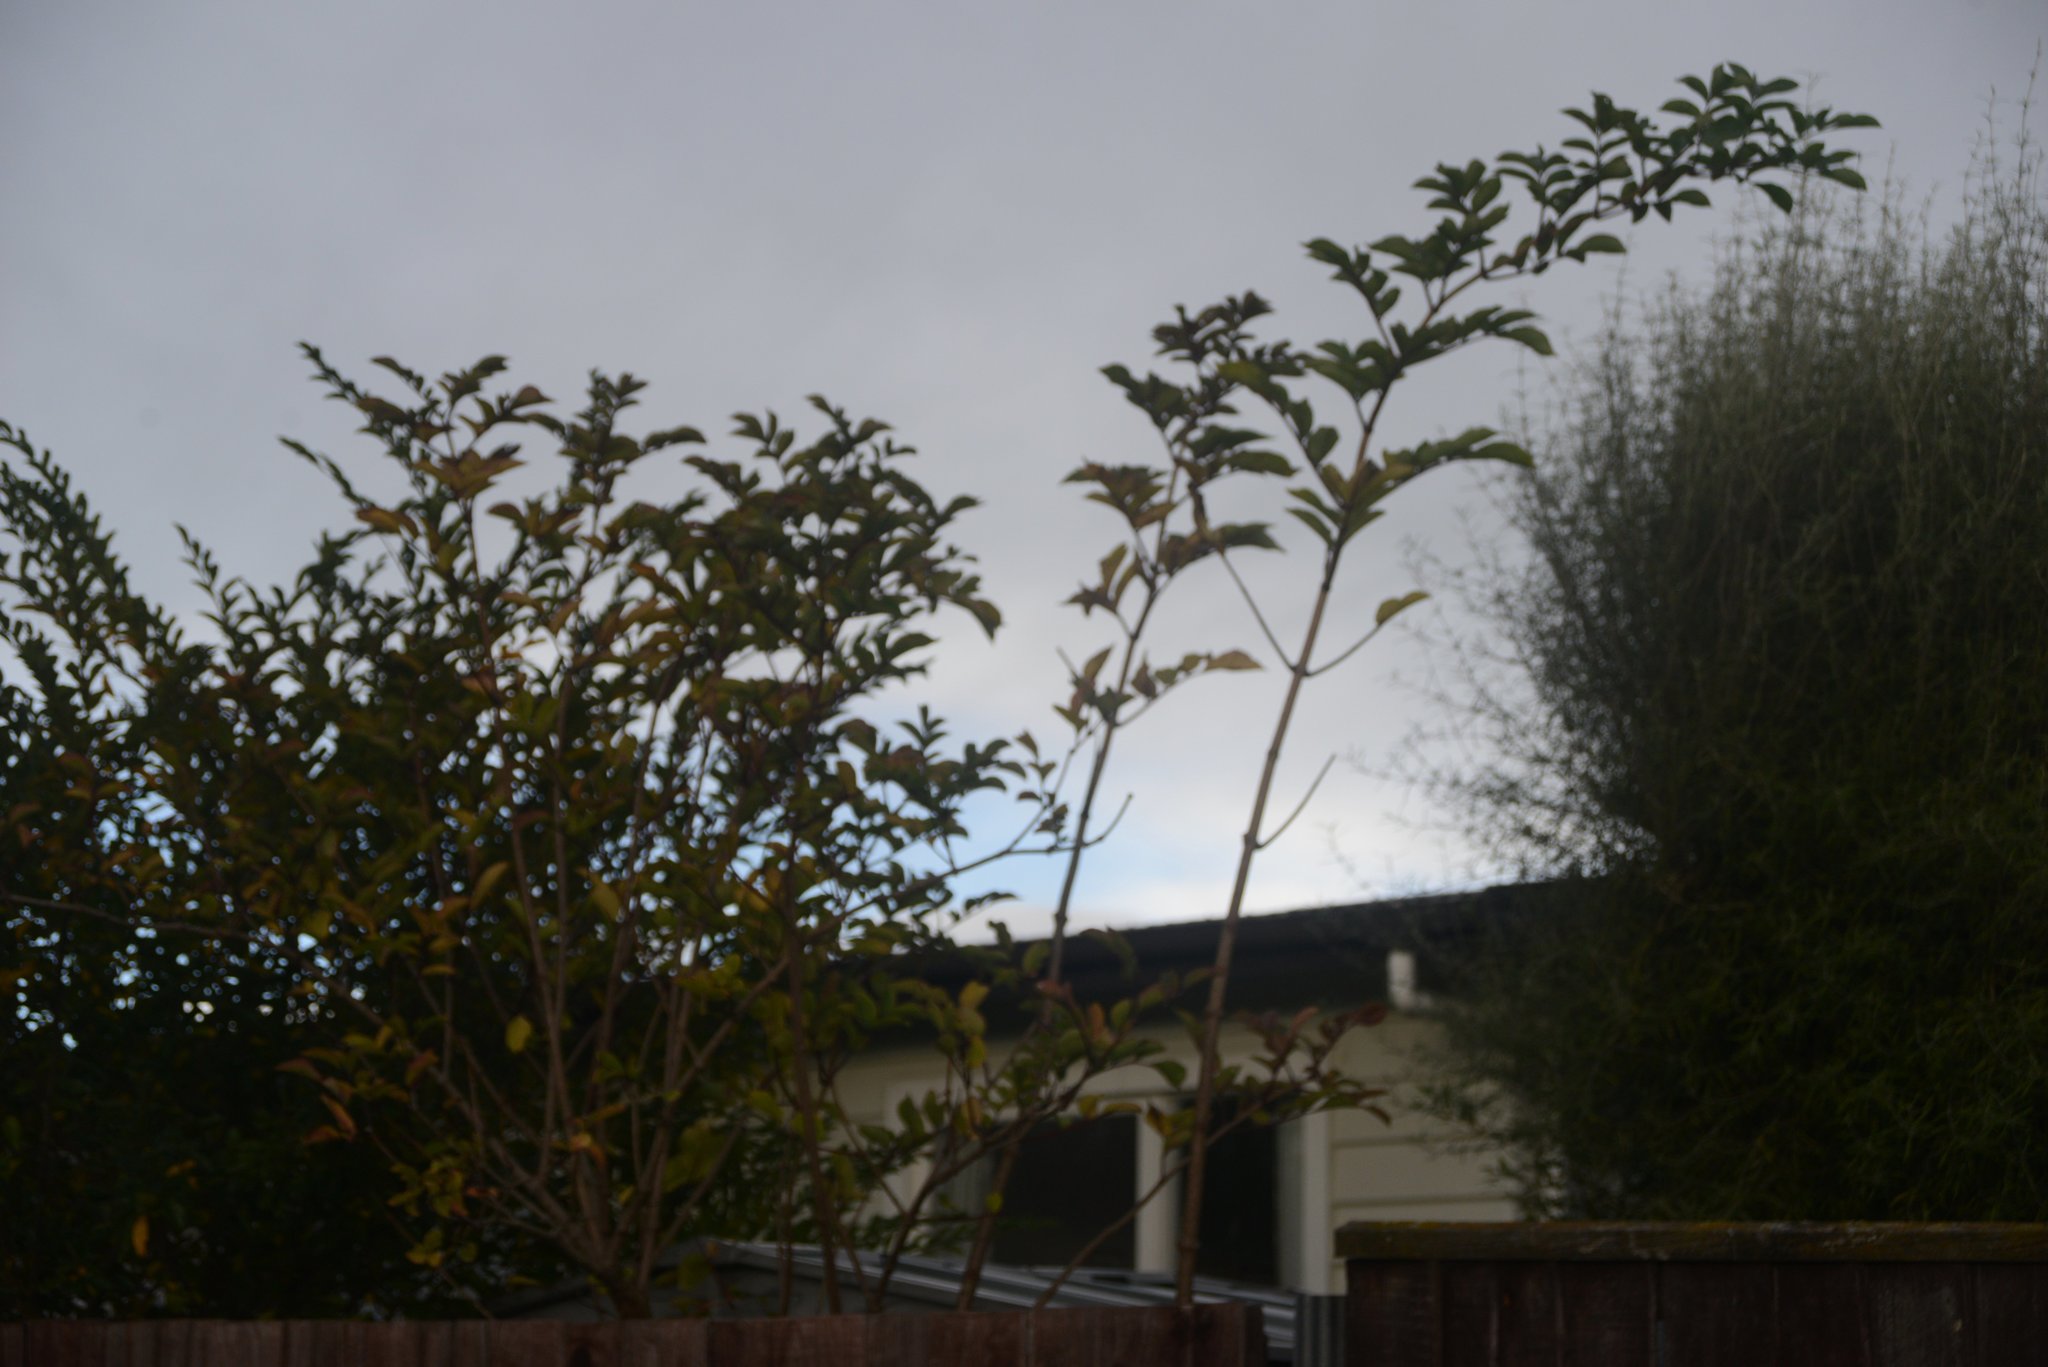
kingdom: Plantae
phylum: Tracheophyta
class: Magnoliopsida
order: Dipsacales
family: Viburnaceae
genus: Sambucus
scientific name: Sambucus nigra
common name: Elder
